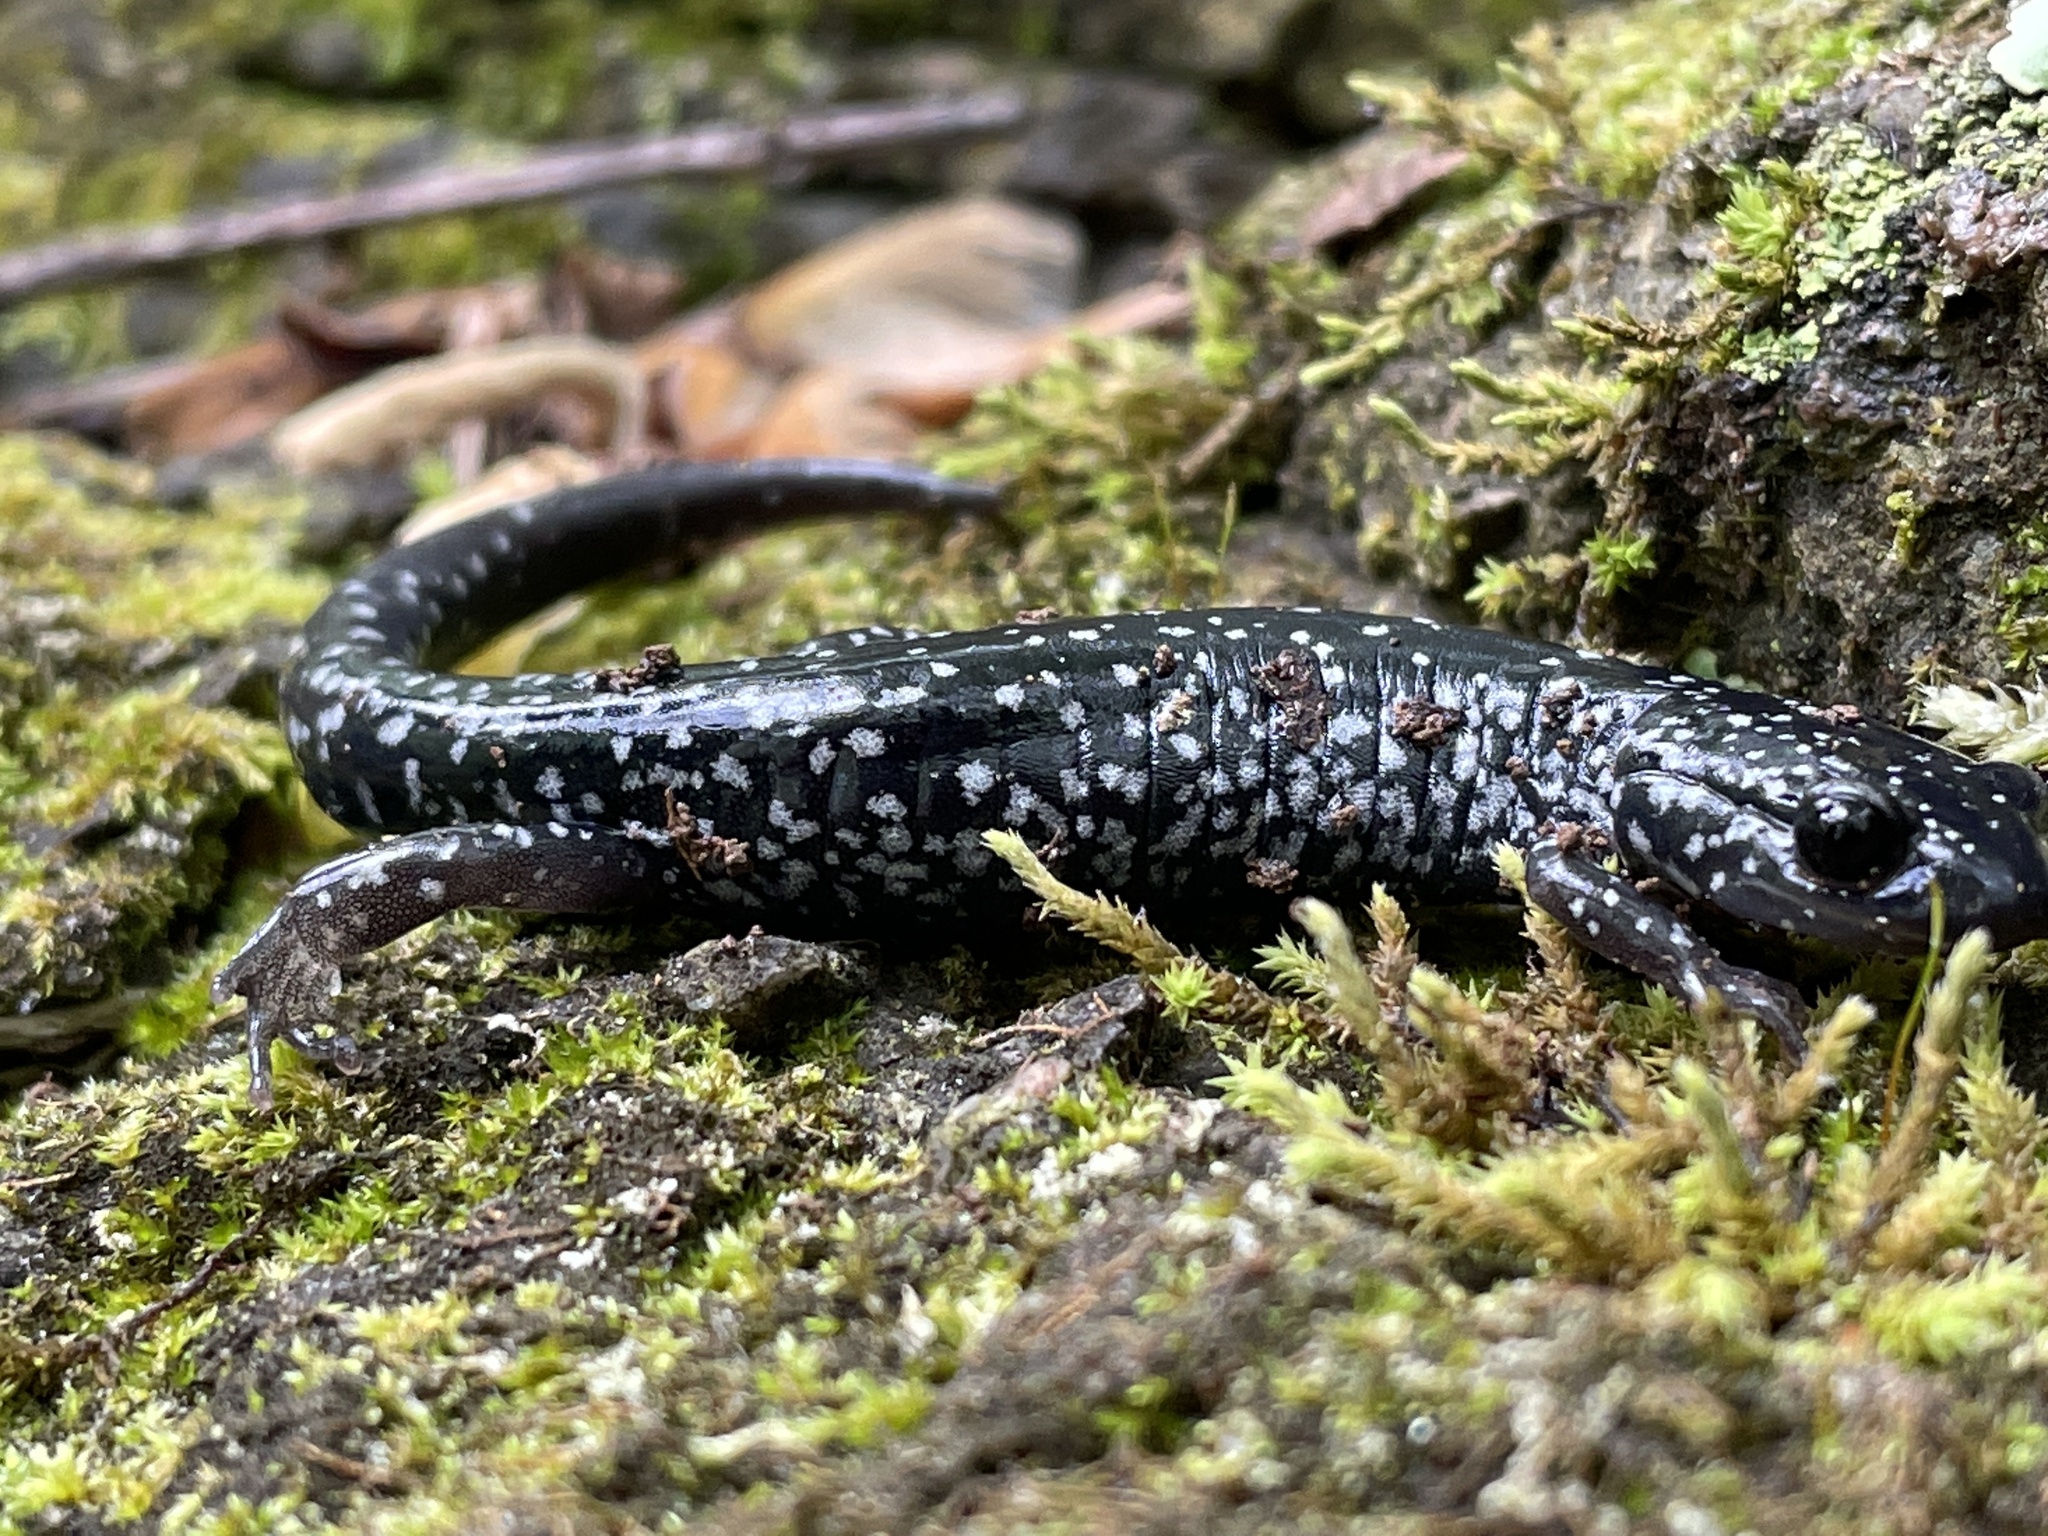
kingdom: Animalia
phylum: Chordata
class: Amphibia
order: Caudata
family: Plethodontidae
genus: Plethodon
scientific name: Plethodon cylindraceus
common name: White-spotted slimy salamander
